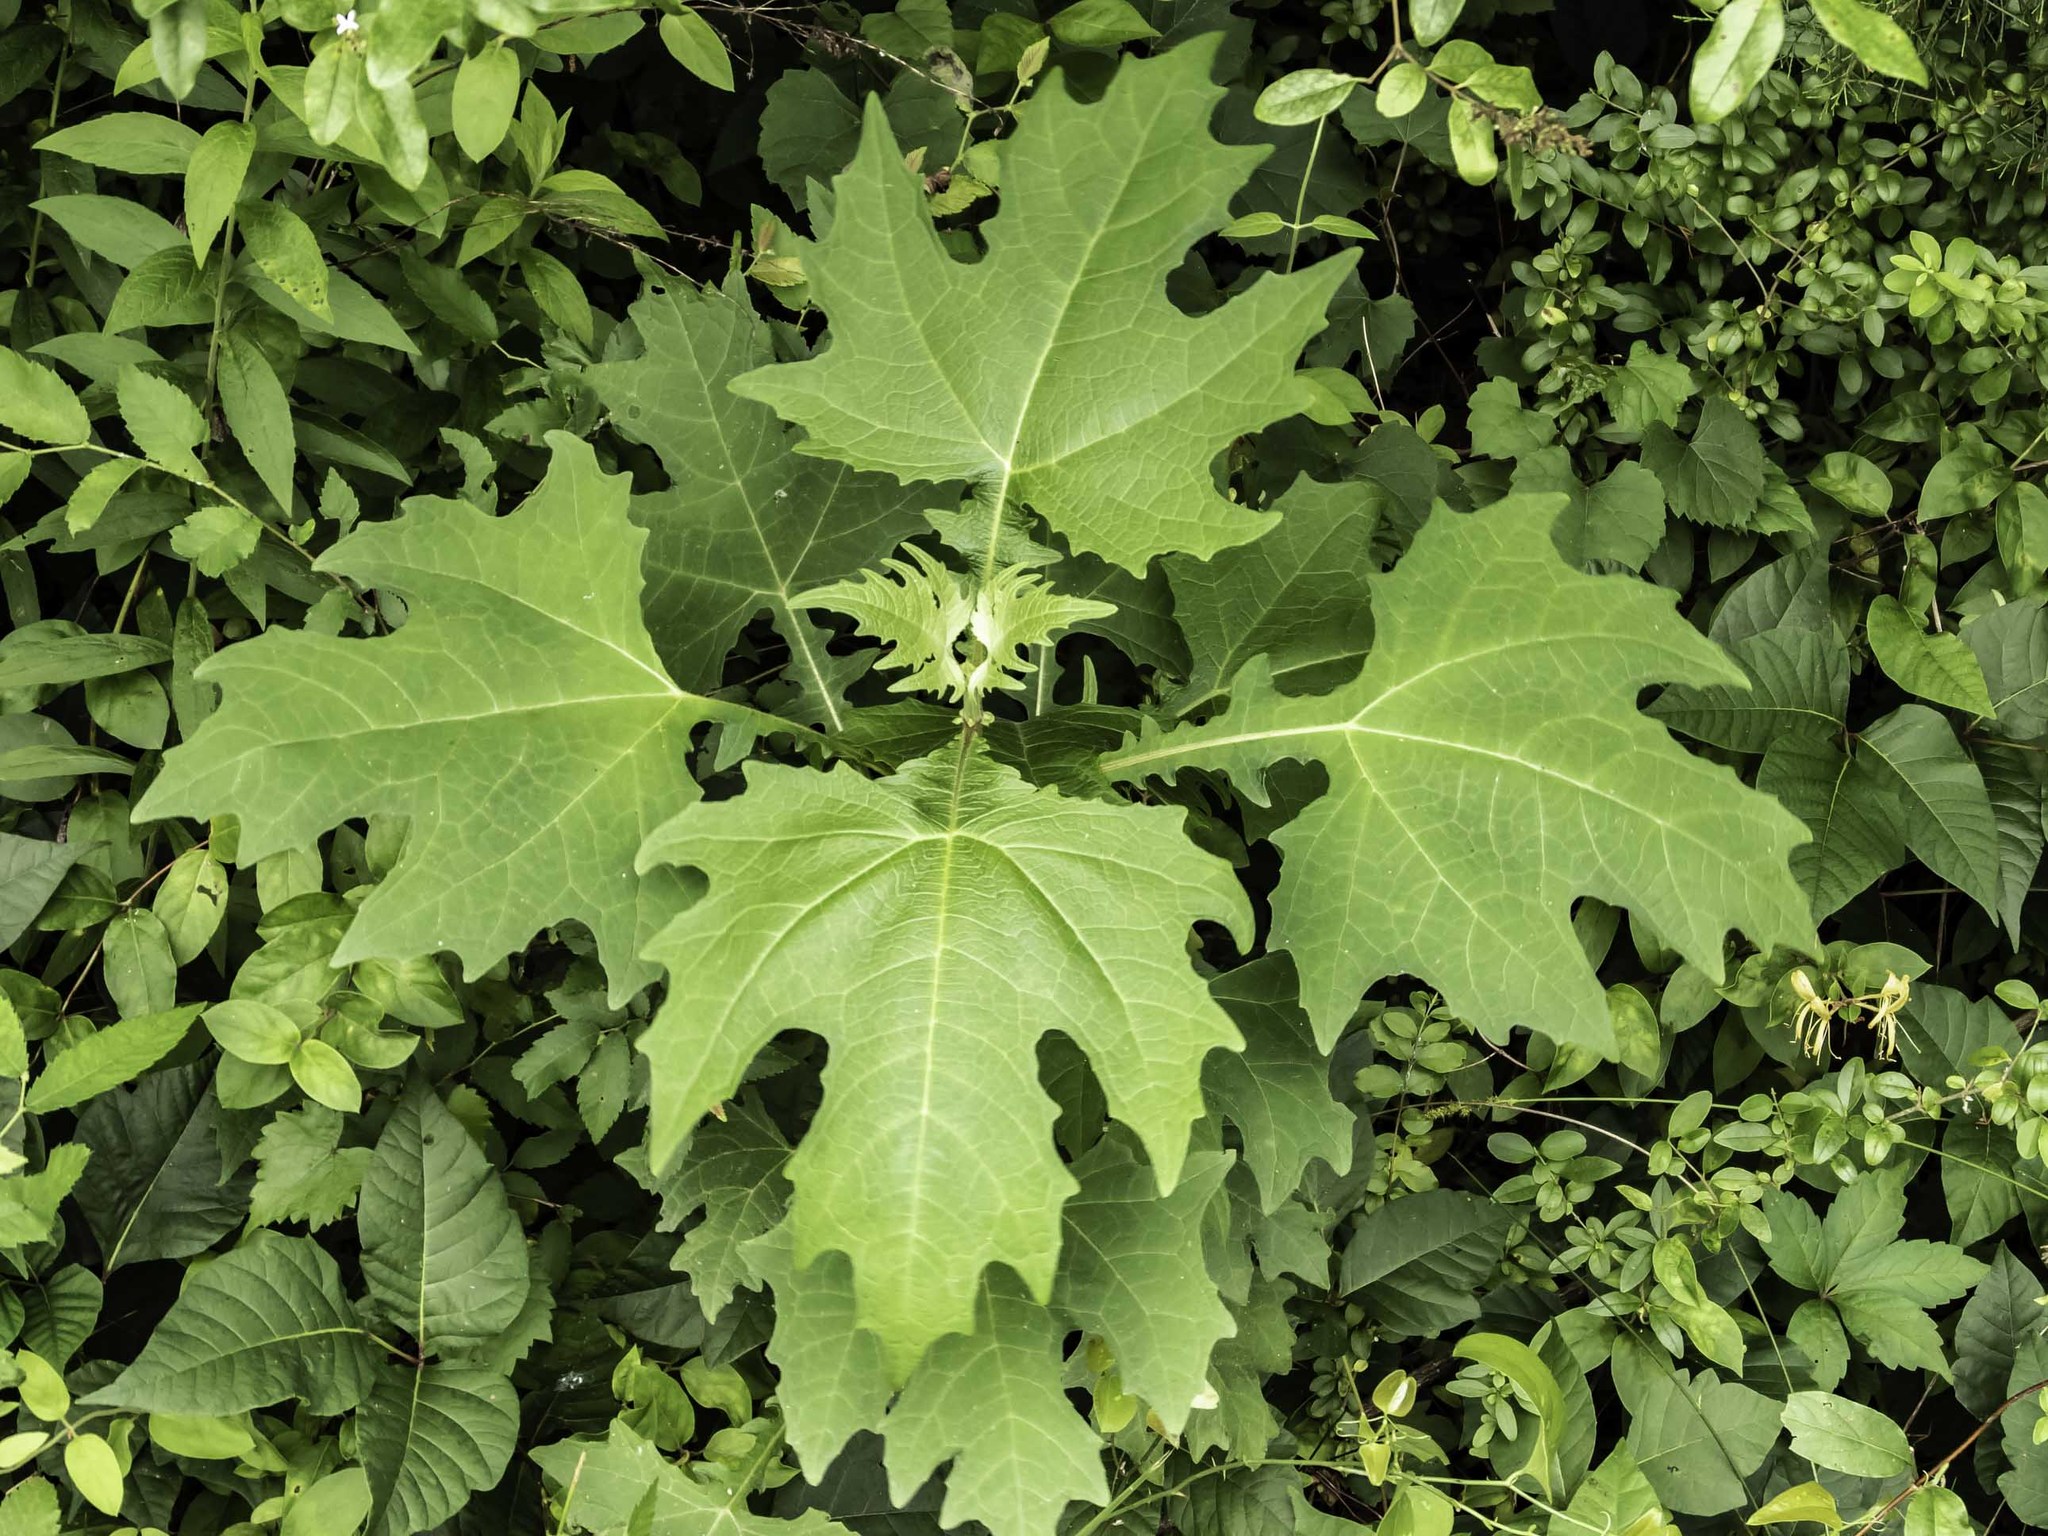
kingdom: Plantae
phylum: Tracheophyta
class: Magnoliopsida
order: Asterales
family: Asteraceae
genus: Smallanthus
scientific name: Smallanthus uvedalia
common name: Bear's-foot
